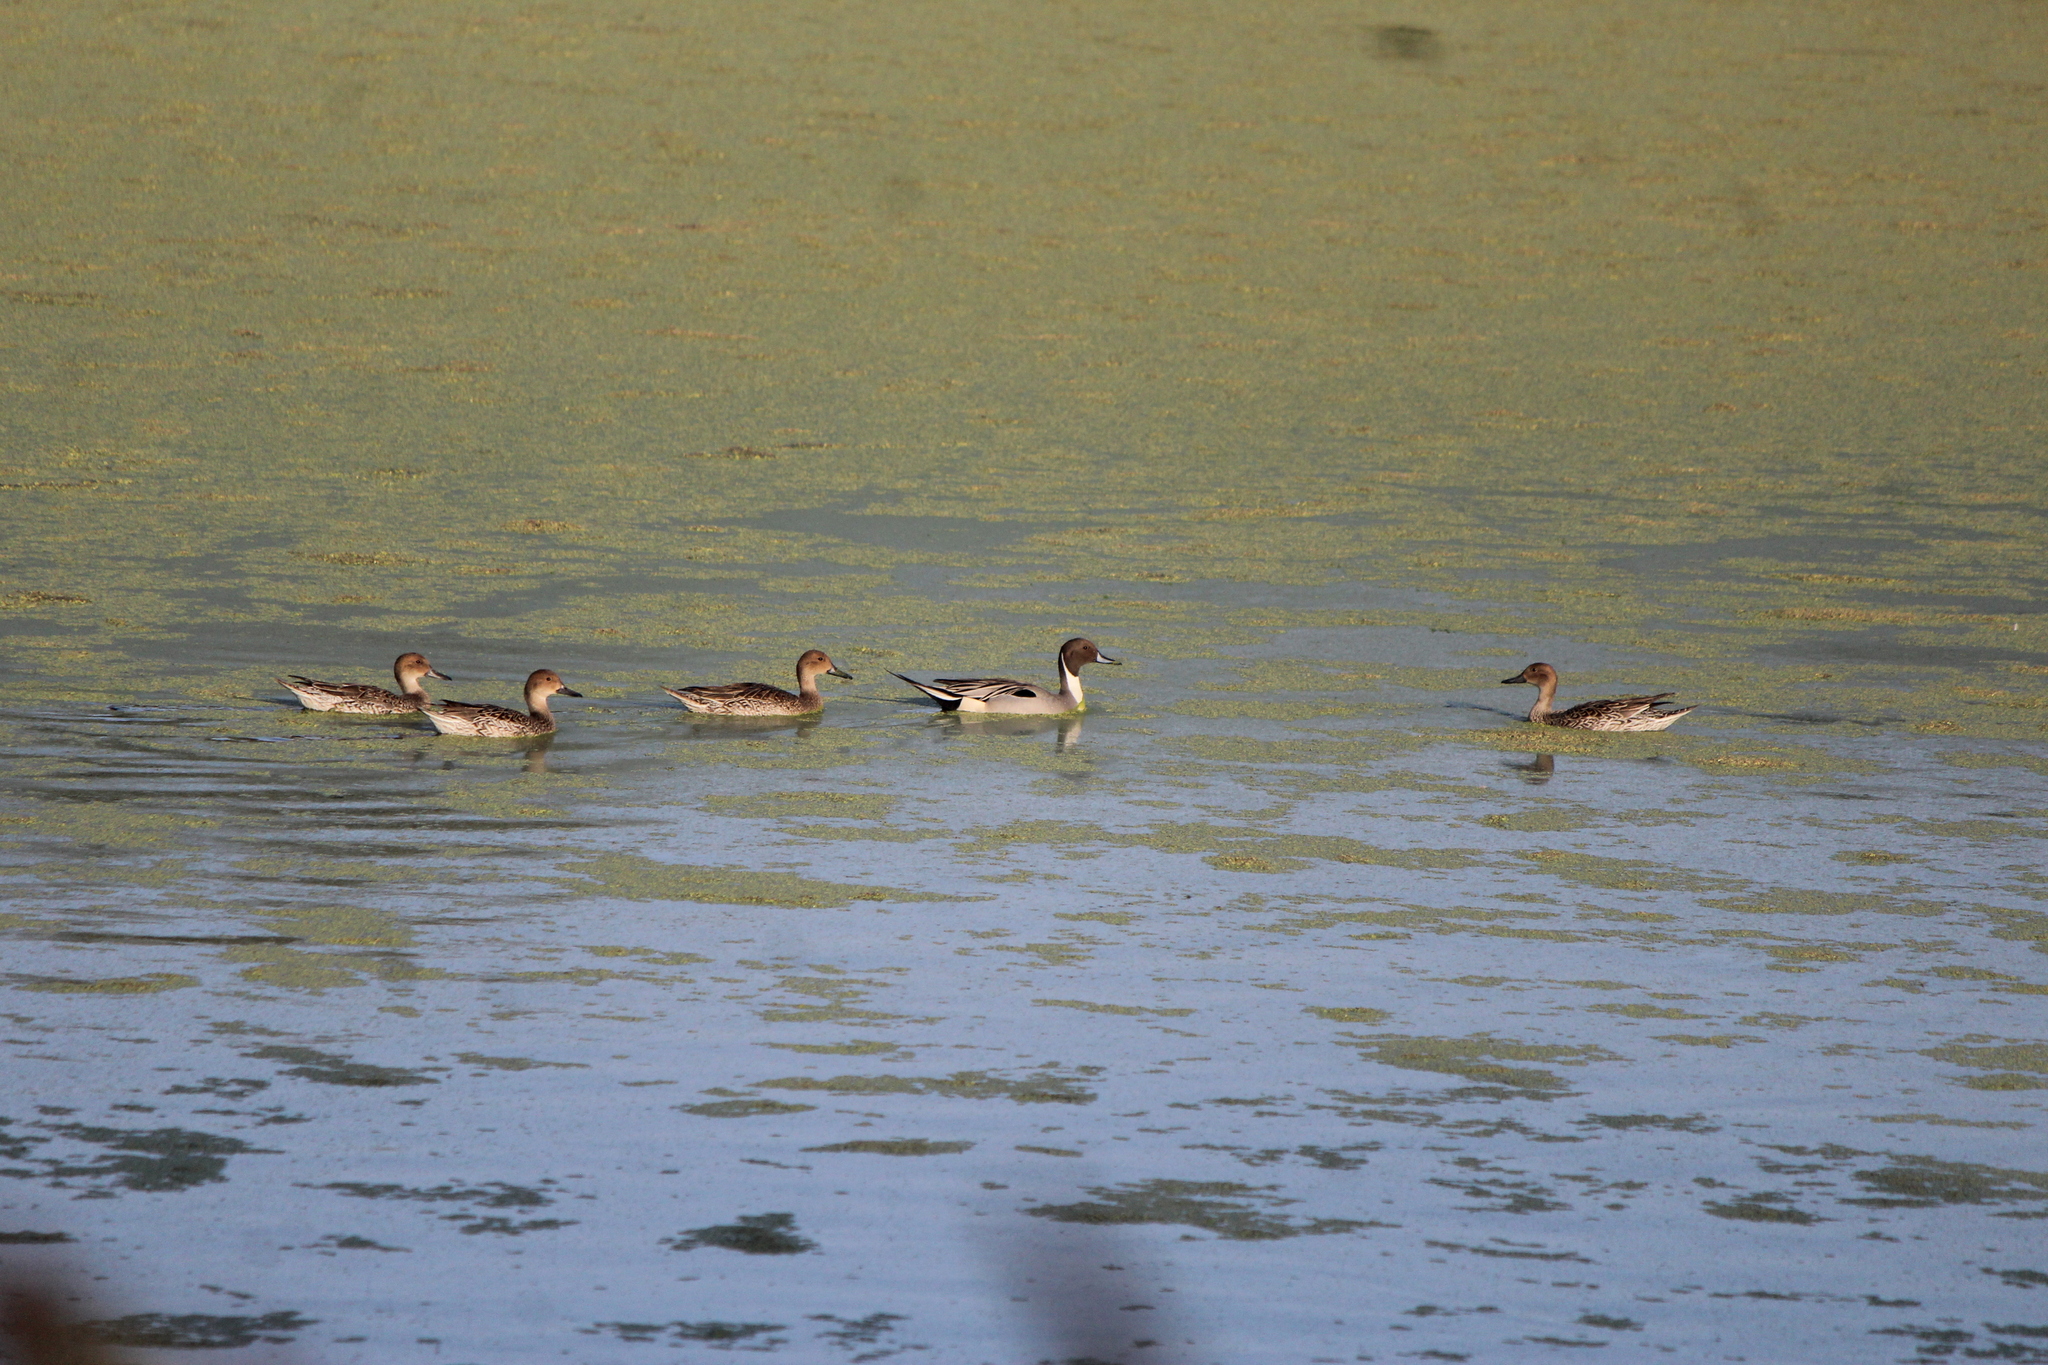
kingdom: Animalia
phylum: Chordata
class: Aves
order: Anseriformes
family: Anatidae
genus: Anas
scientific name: Anas acuta
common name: Northern pintail
